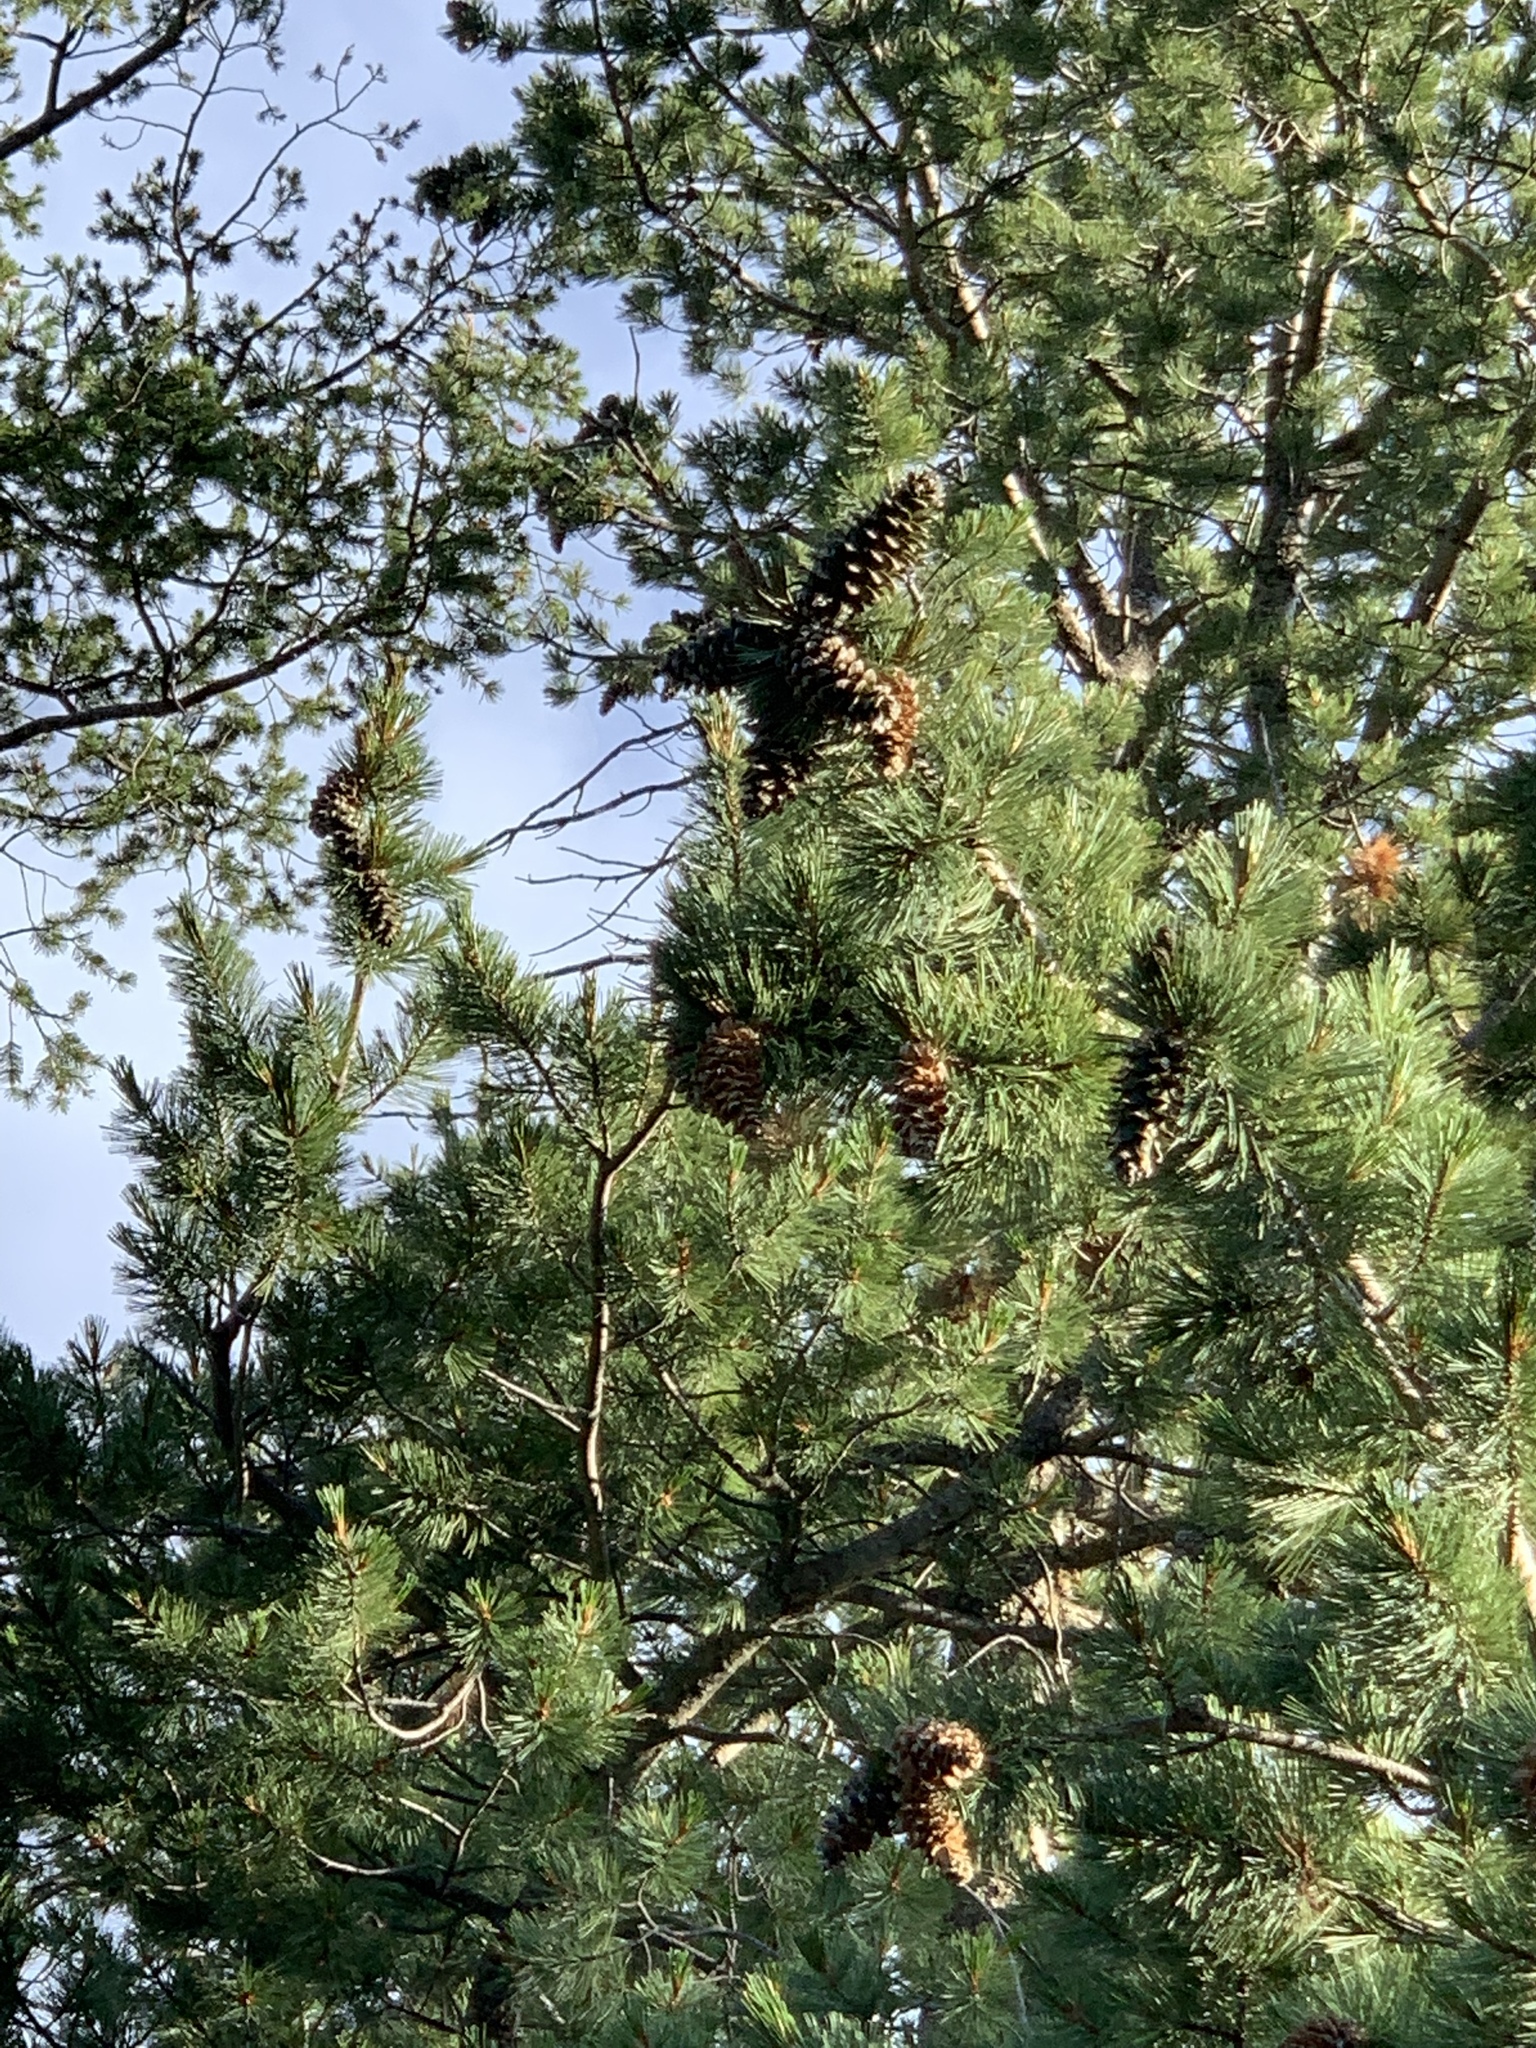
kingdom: Plantae
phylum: Tracheophyta
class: Pinopsida
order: Pinales
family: Pinaceae
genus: Pinus
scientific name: Pinus strobiformis
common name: Southwestern white pine
